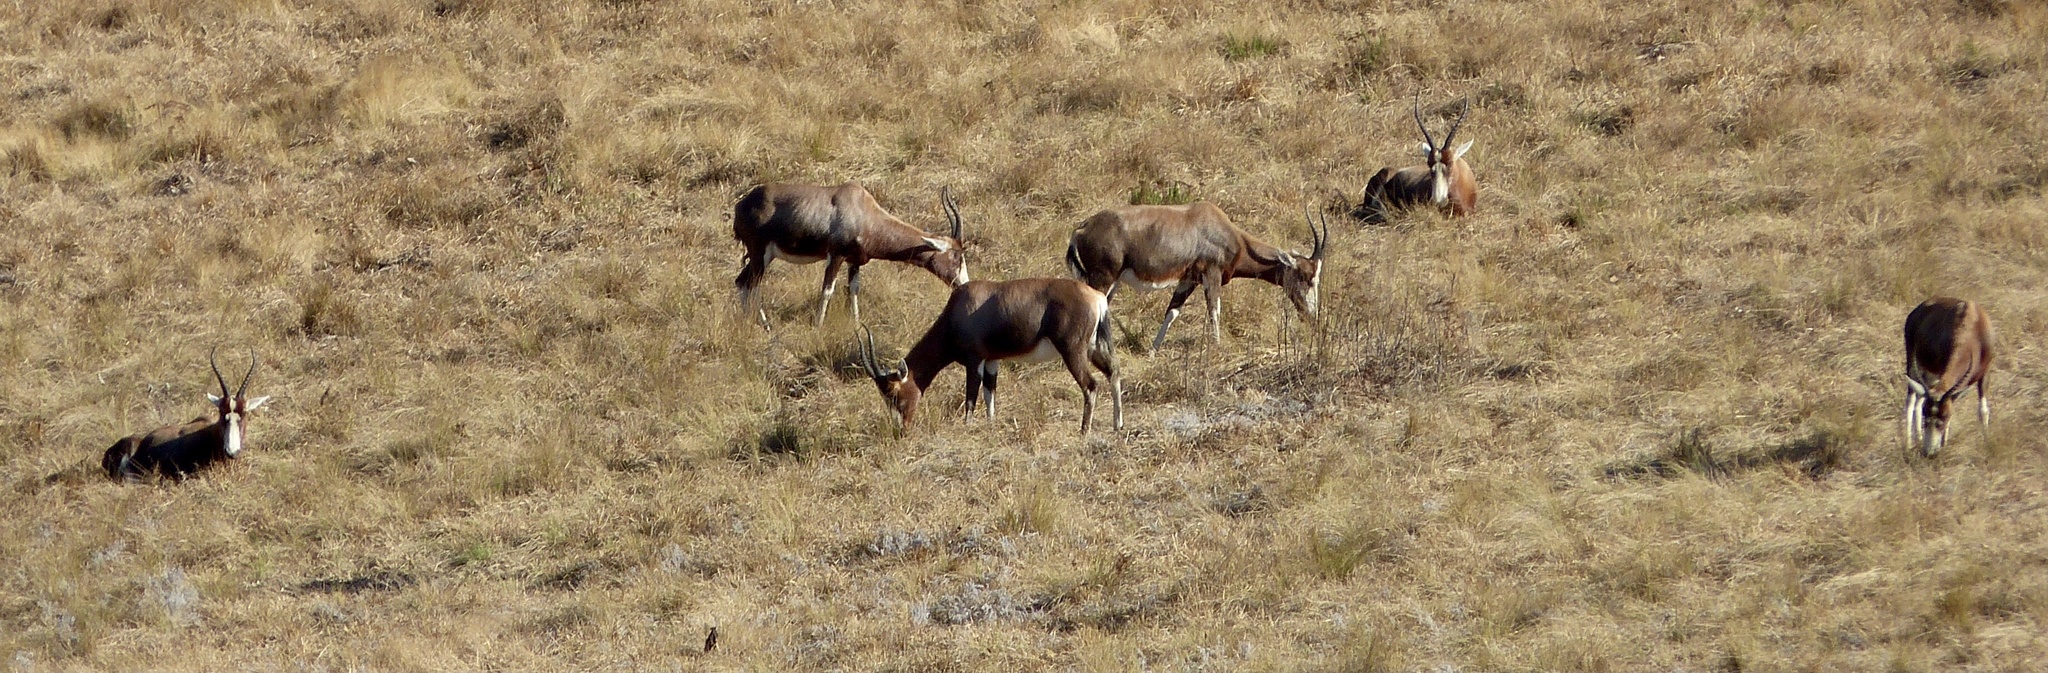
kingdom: Animalia
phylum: Chordata
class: Mammalia
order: Artiodactyla
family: Bovidae
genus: Damaliscus
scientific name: Damaliscus pygargus
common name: Bontebok
